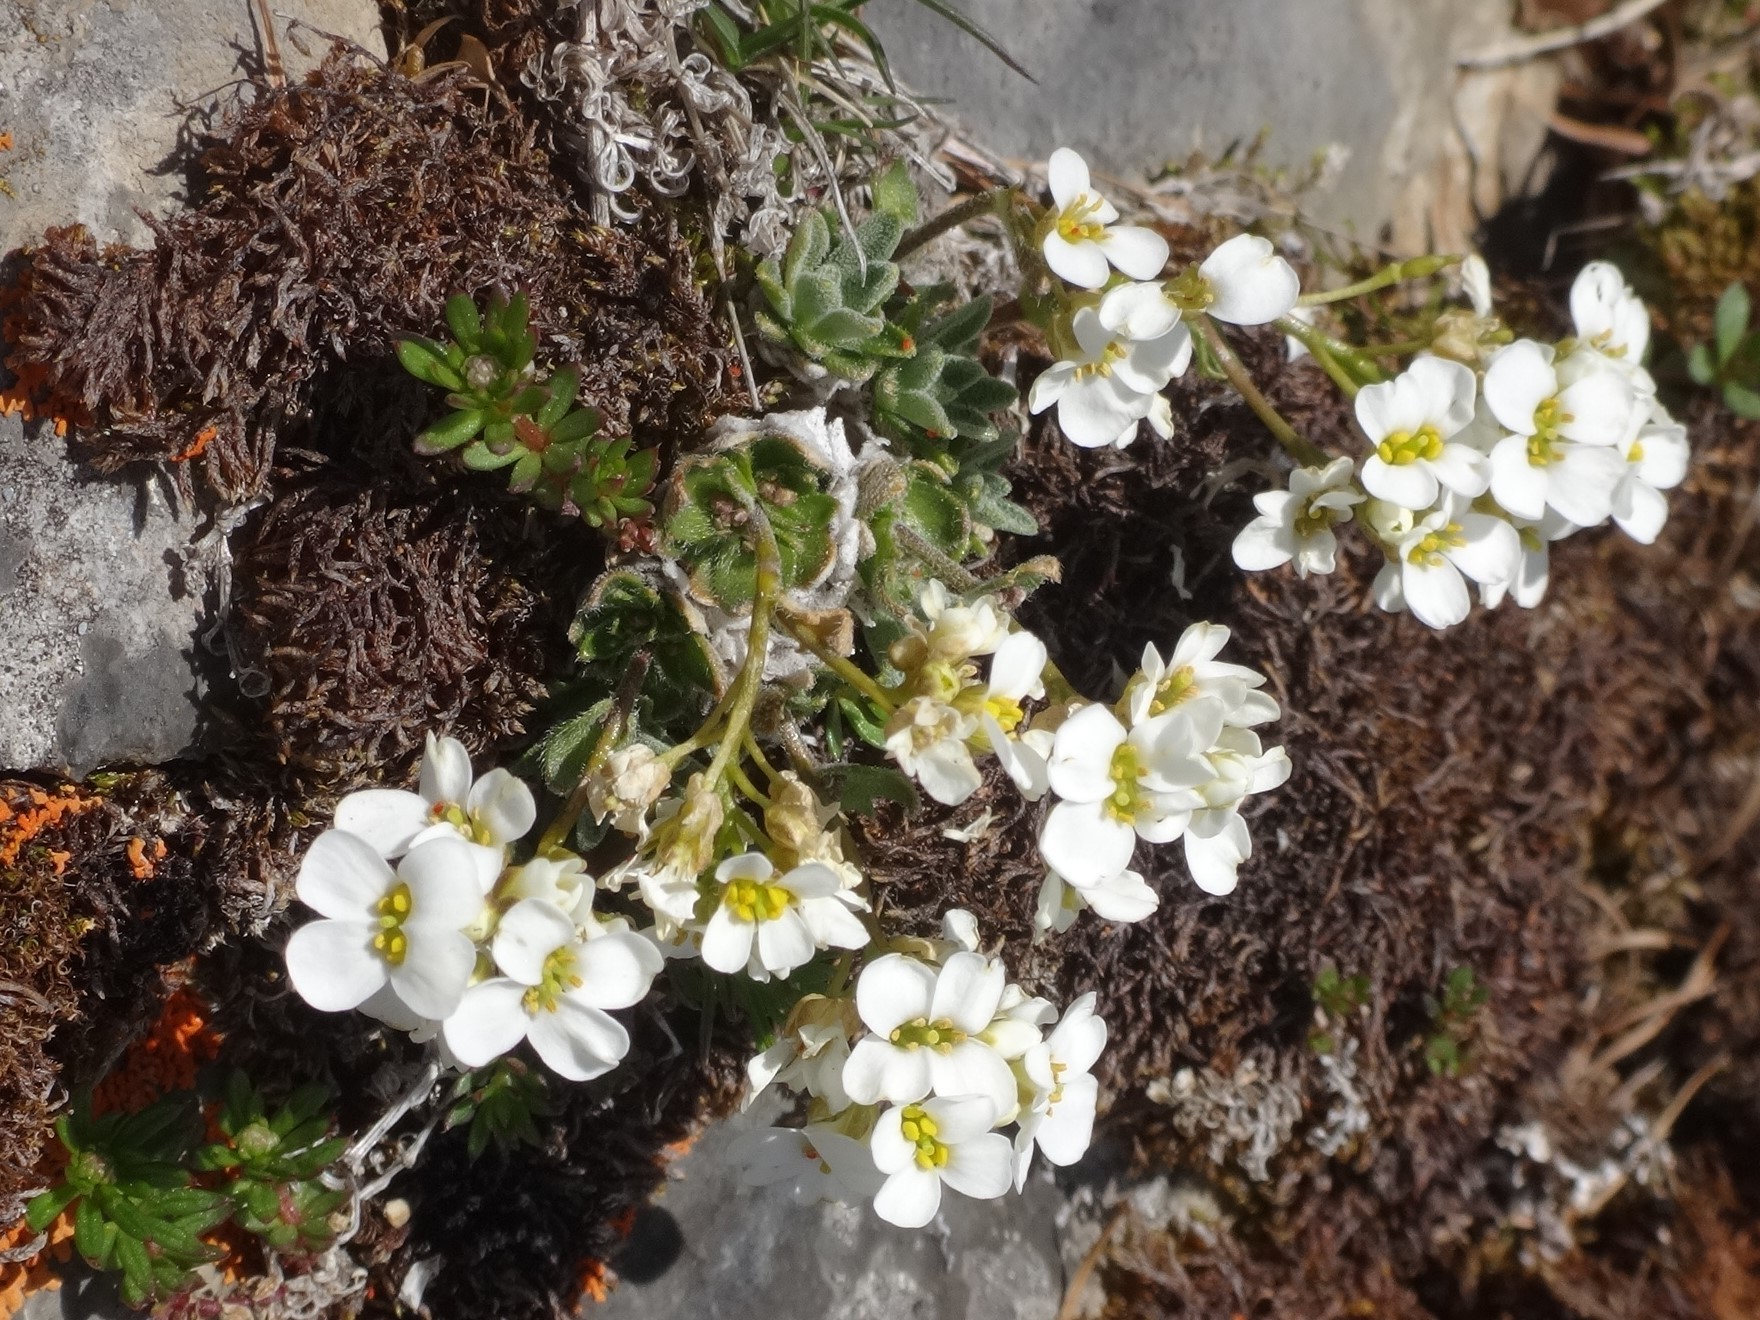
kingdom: Plantae
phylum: Tracheophyta
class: Magnoliopsida
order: Brassicales
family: Brassicaceae
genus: Draba
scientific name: Draba stellata
